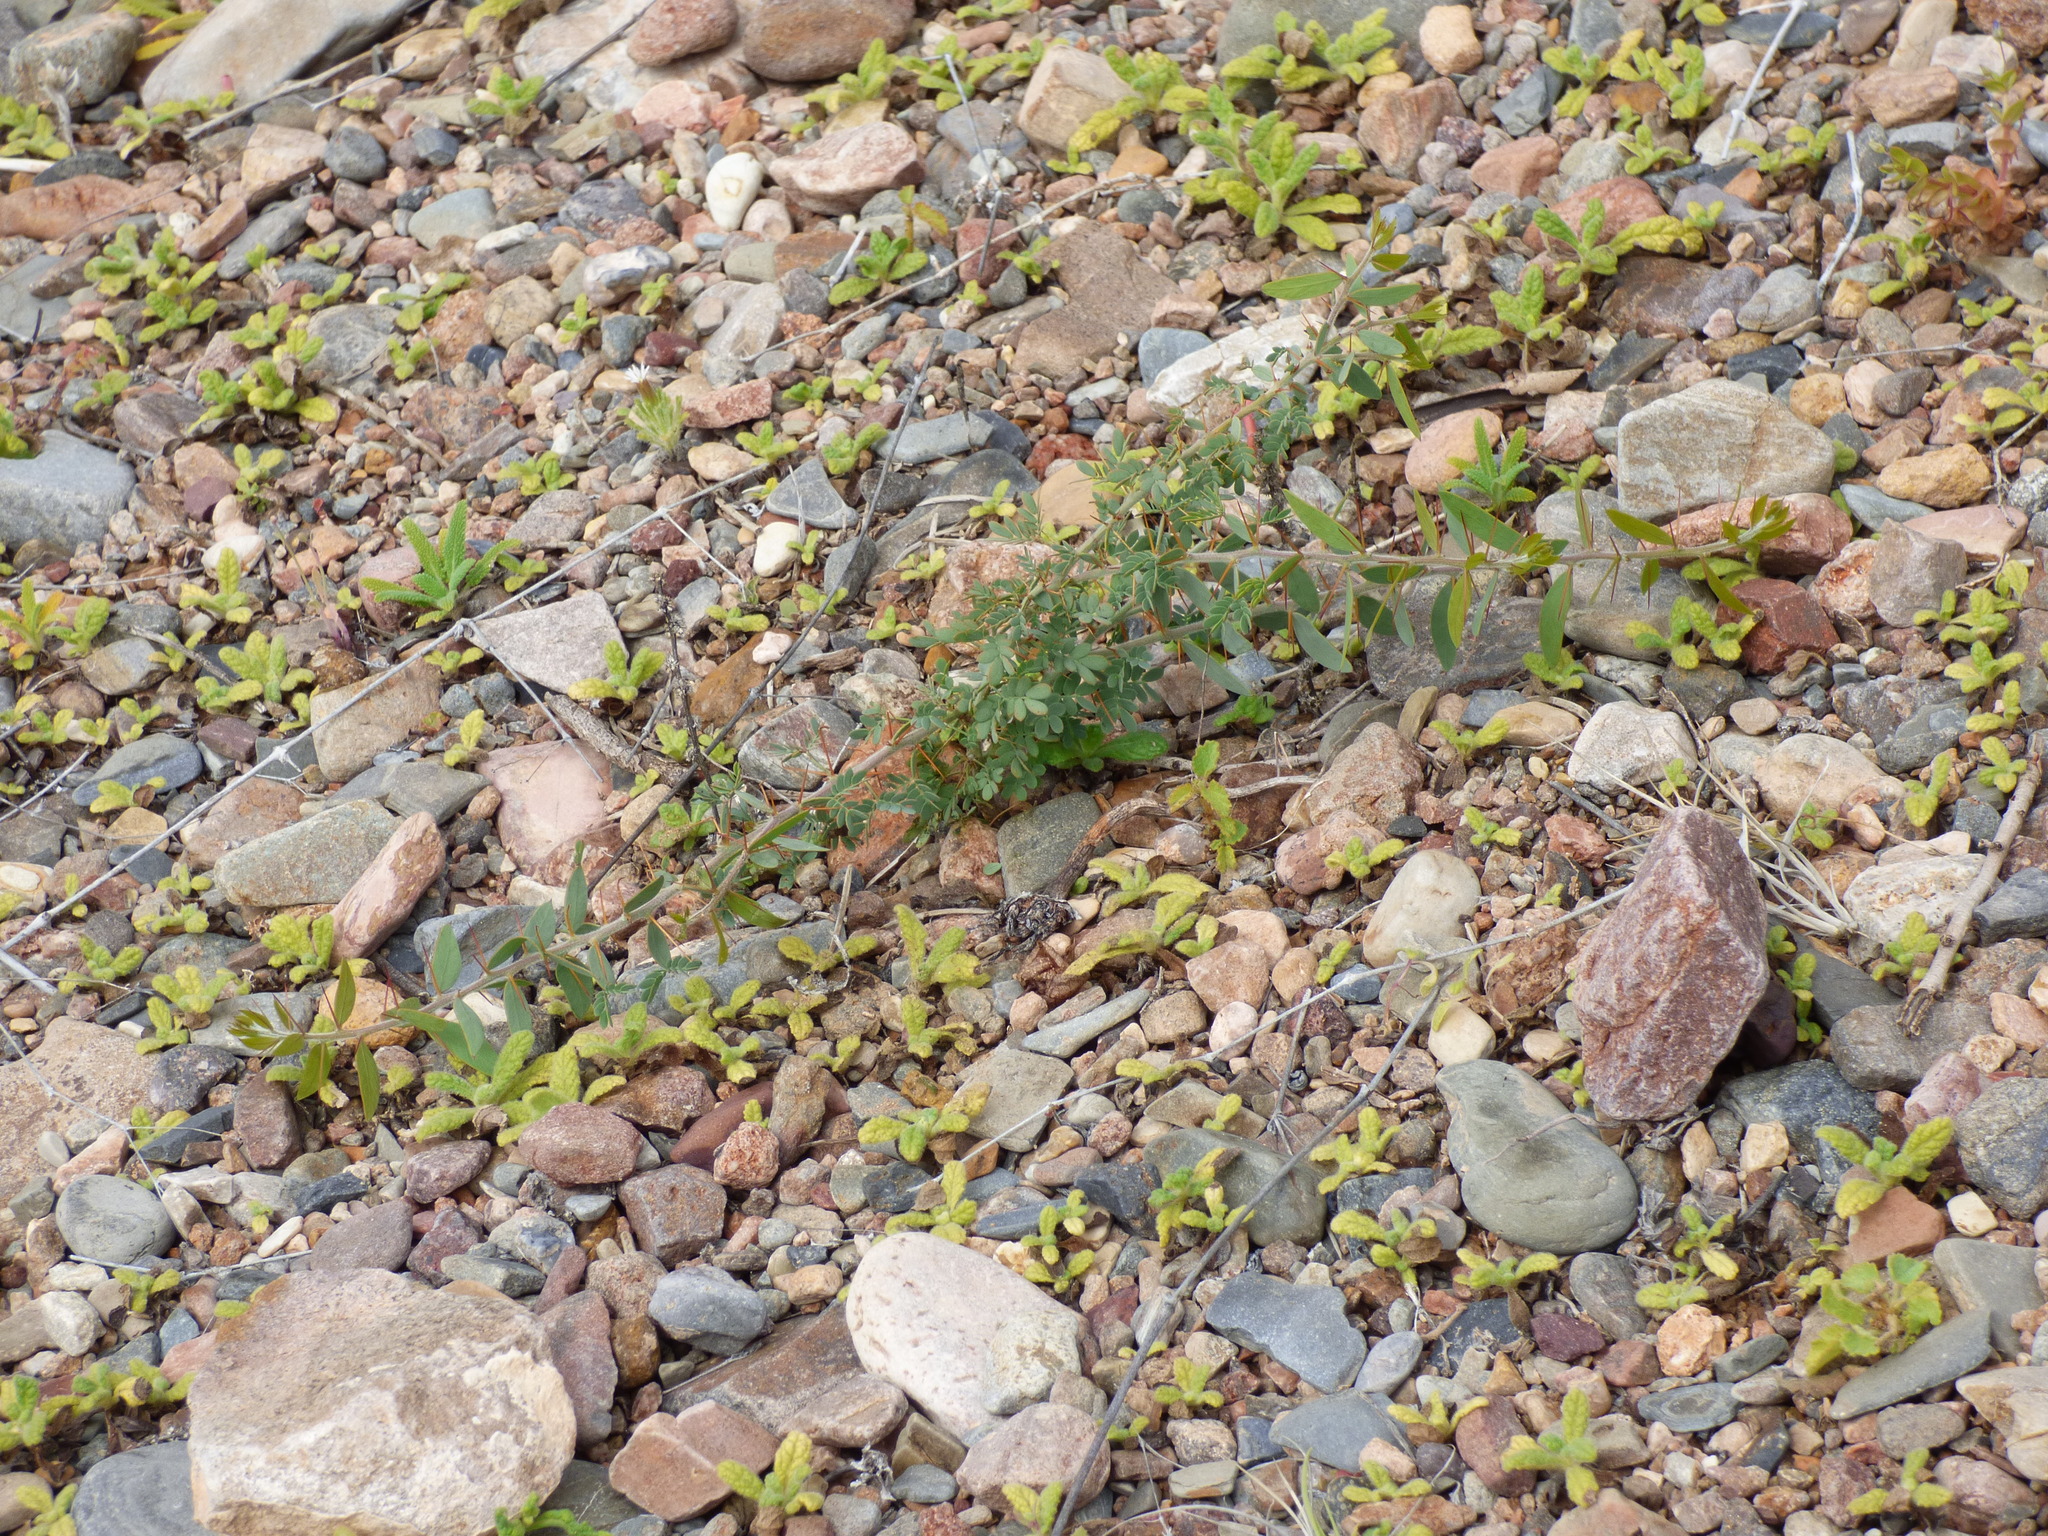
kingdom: Plantae
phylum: Tracheophyta
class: Magnoliopsida
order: Fabales
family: Fabaceae
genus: Acacia
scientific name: Acacia victoriae
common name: Bramble wattle
